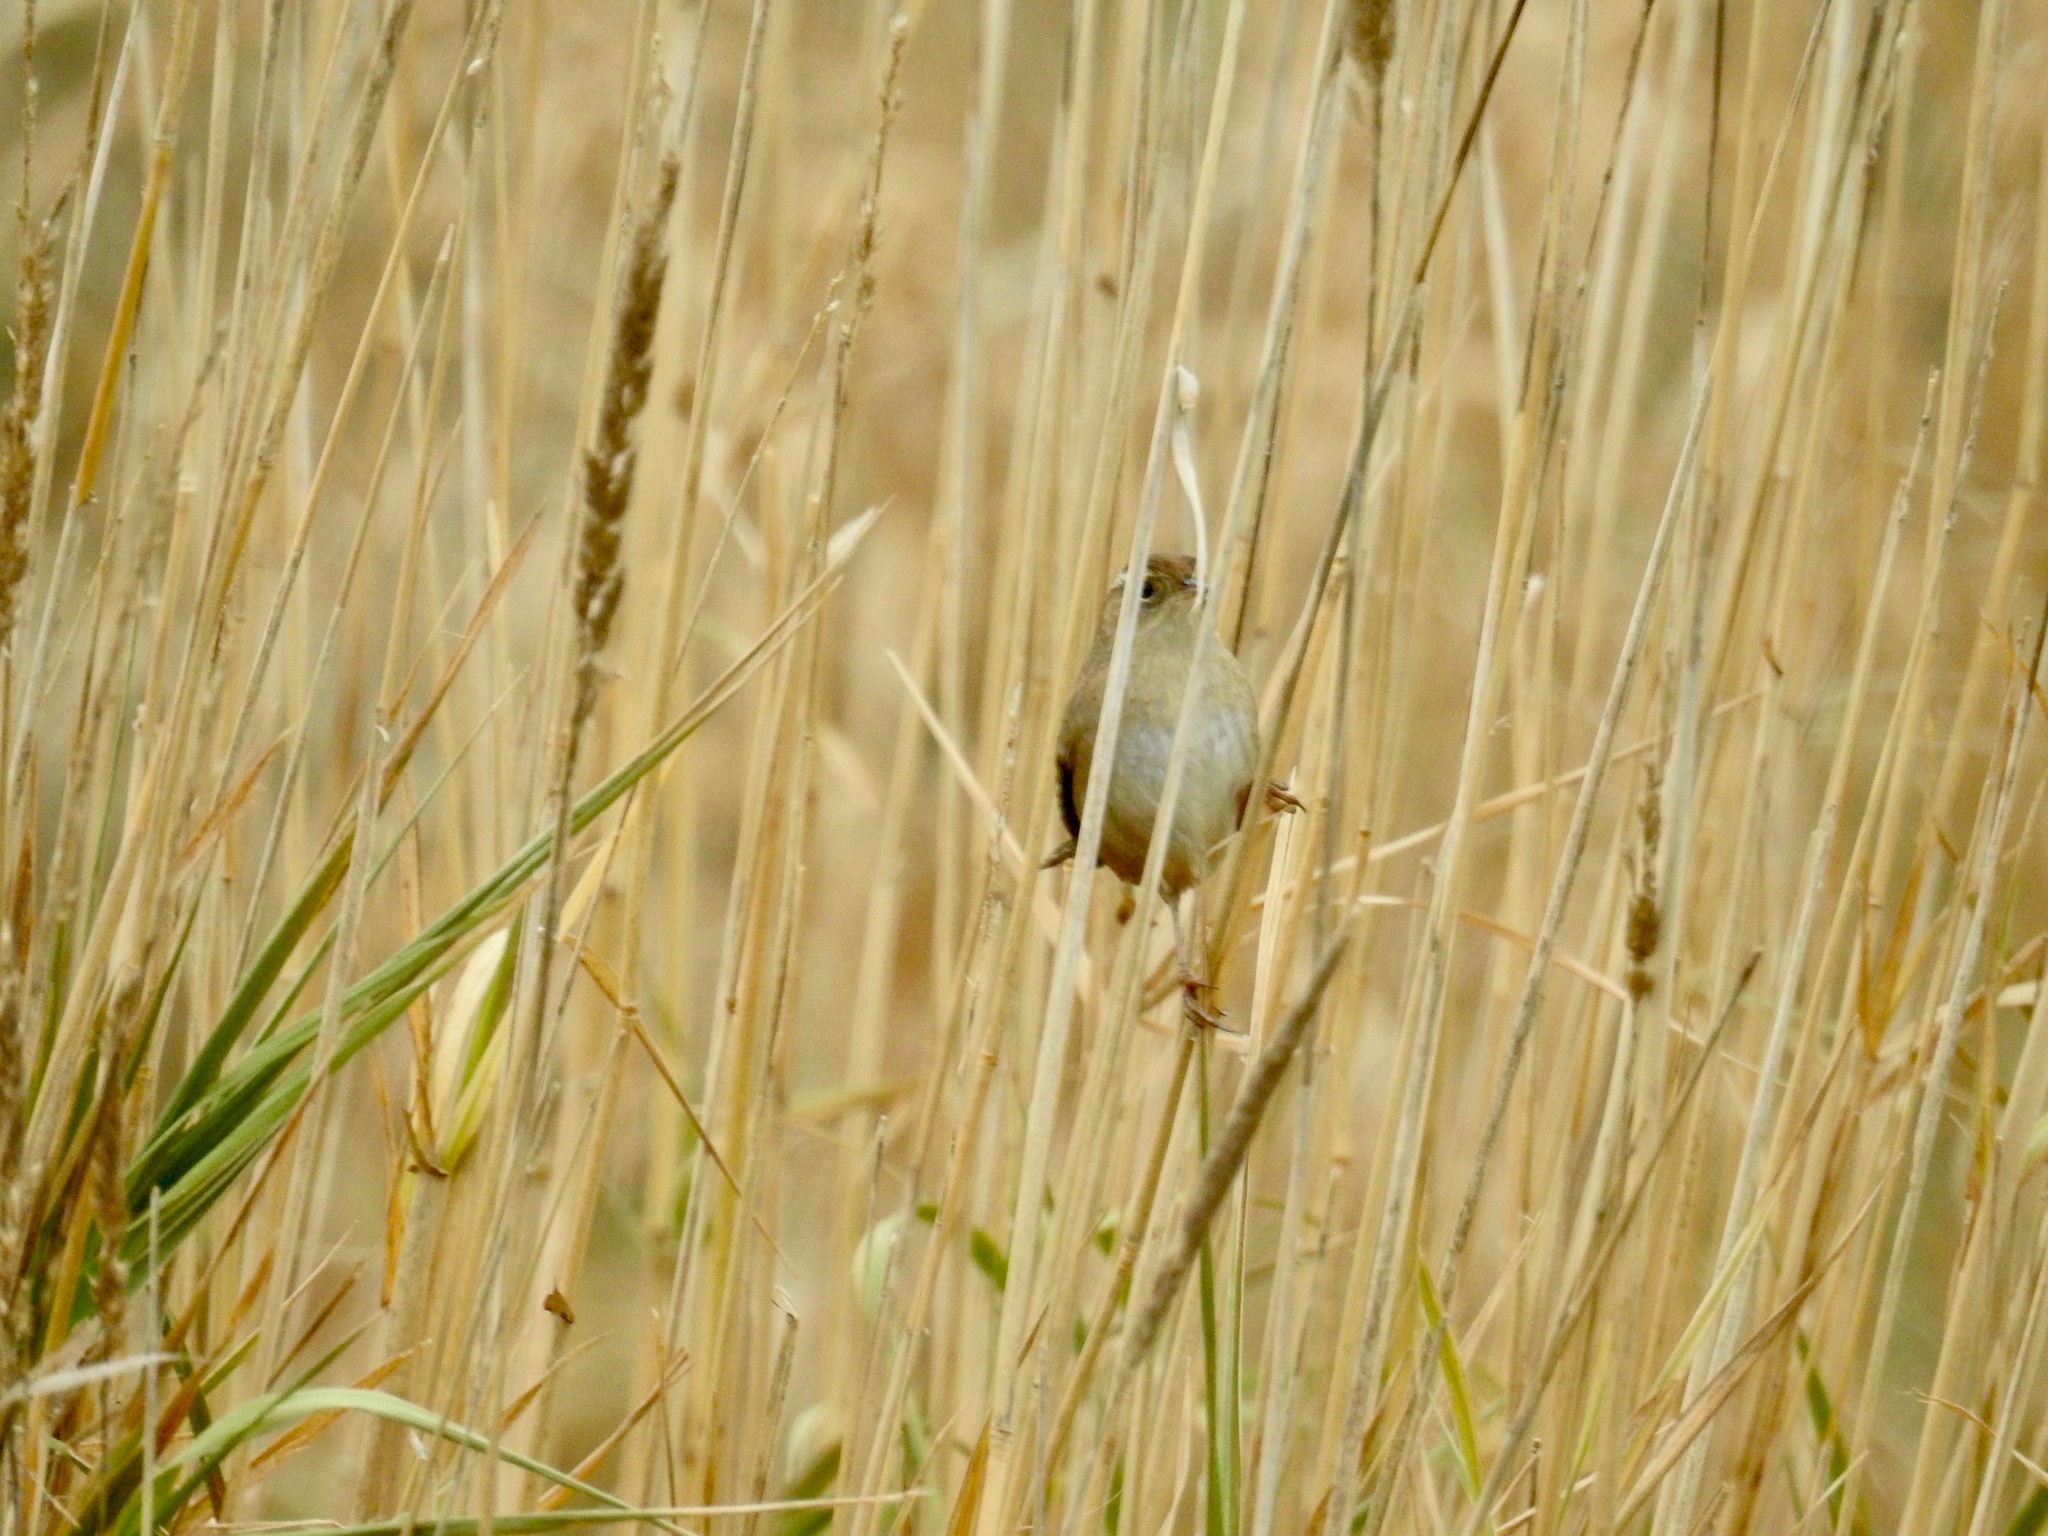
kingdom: Animalia
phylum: Chordata
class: Aves
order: Passeriformes
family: Troglodytidae
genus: Cistothorus
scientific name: Cistothorus palustris
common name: Marsh wren
